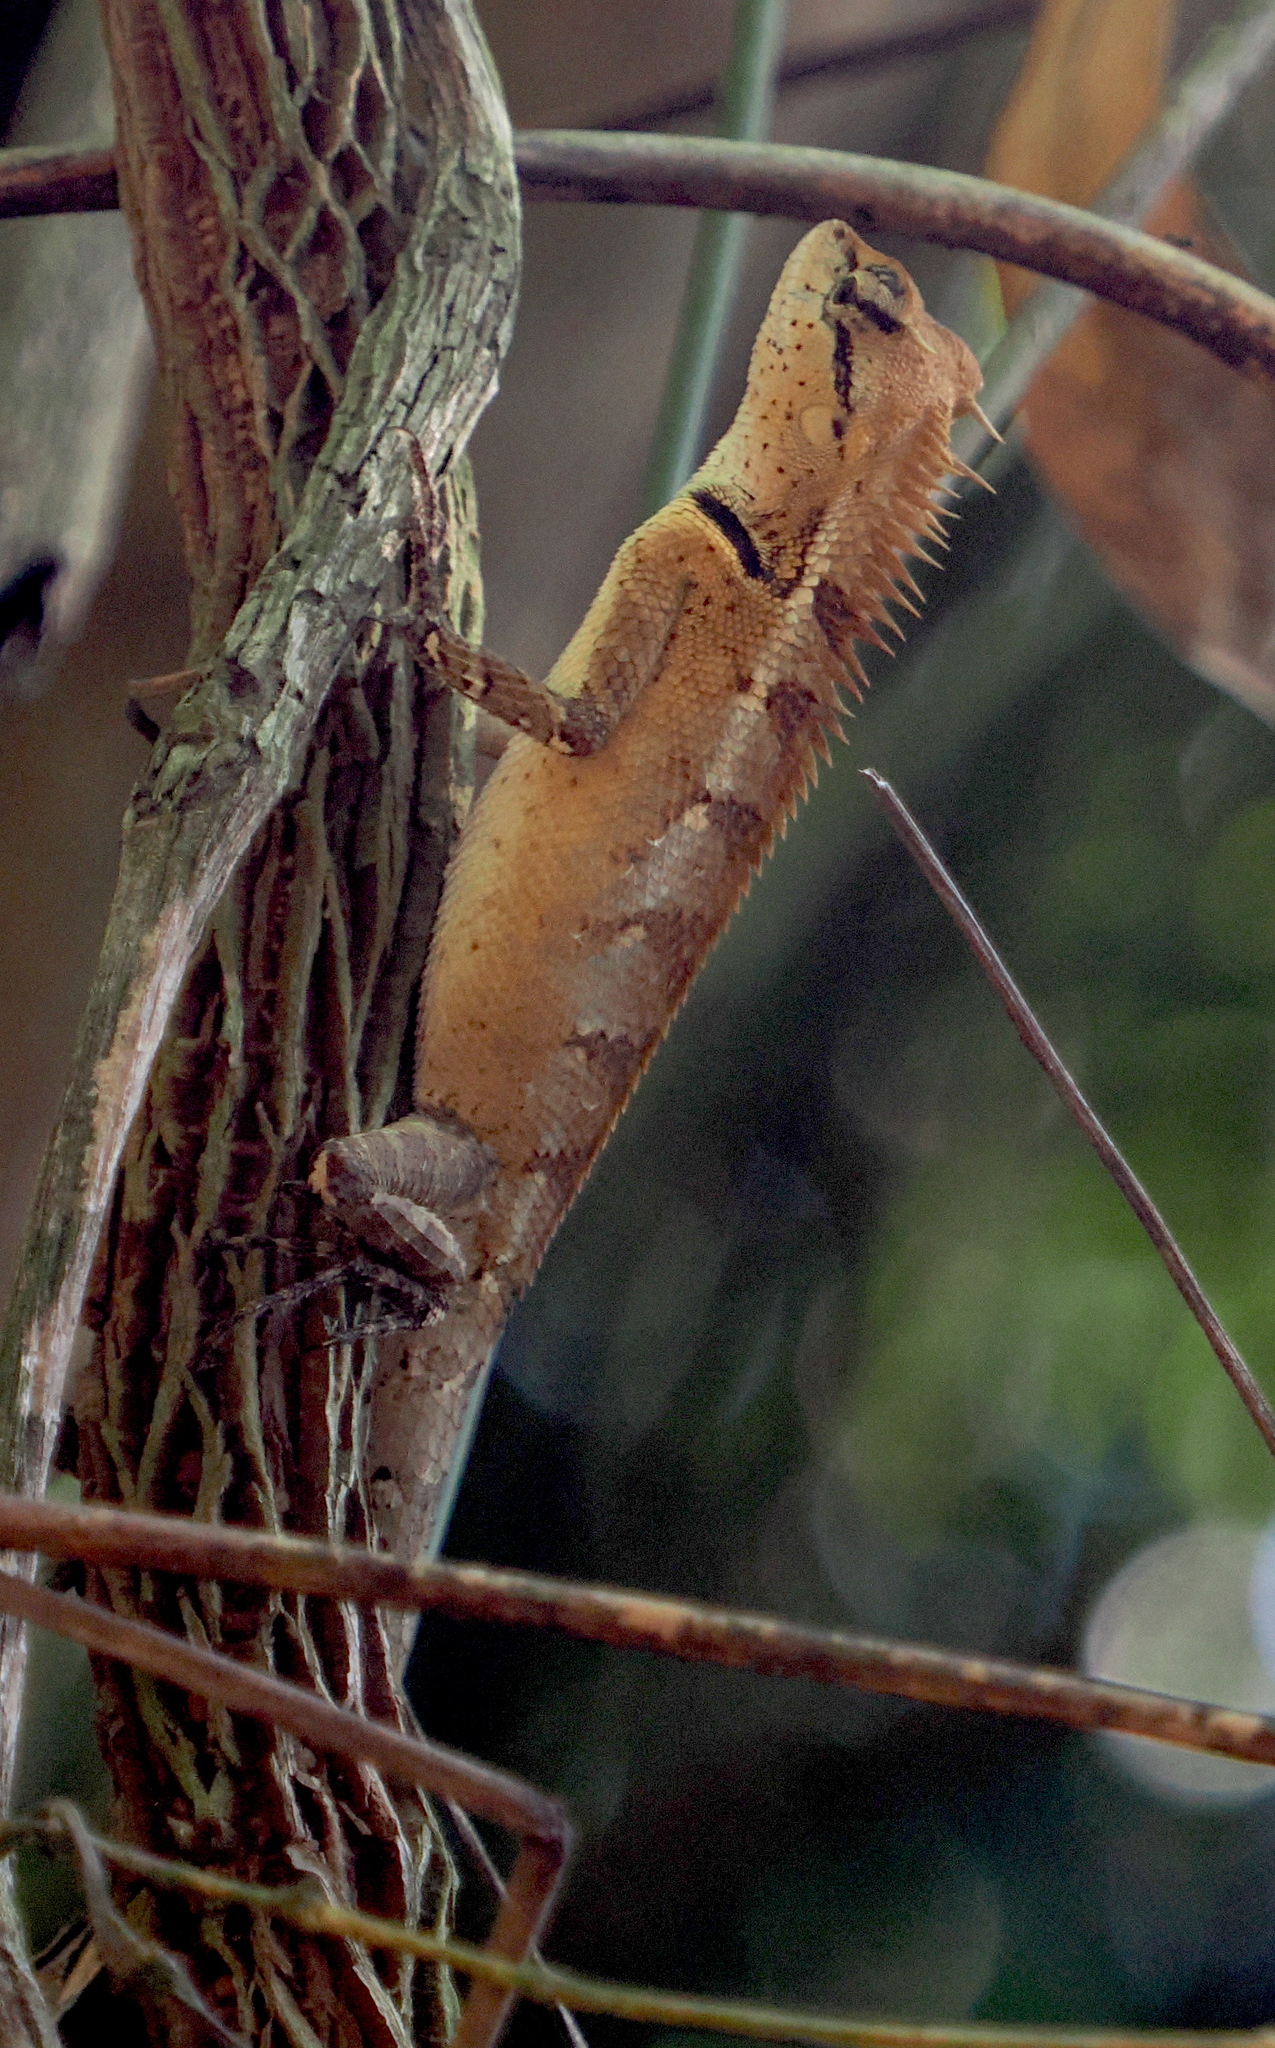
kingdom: Animalia
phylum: Chordata
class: Squamata
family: Agamidae
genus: Calotes
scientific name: Calotes emma
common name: Thailand bloodsucker
